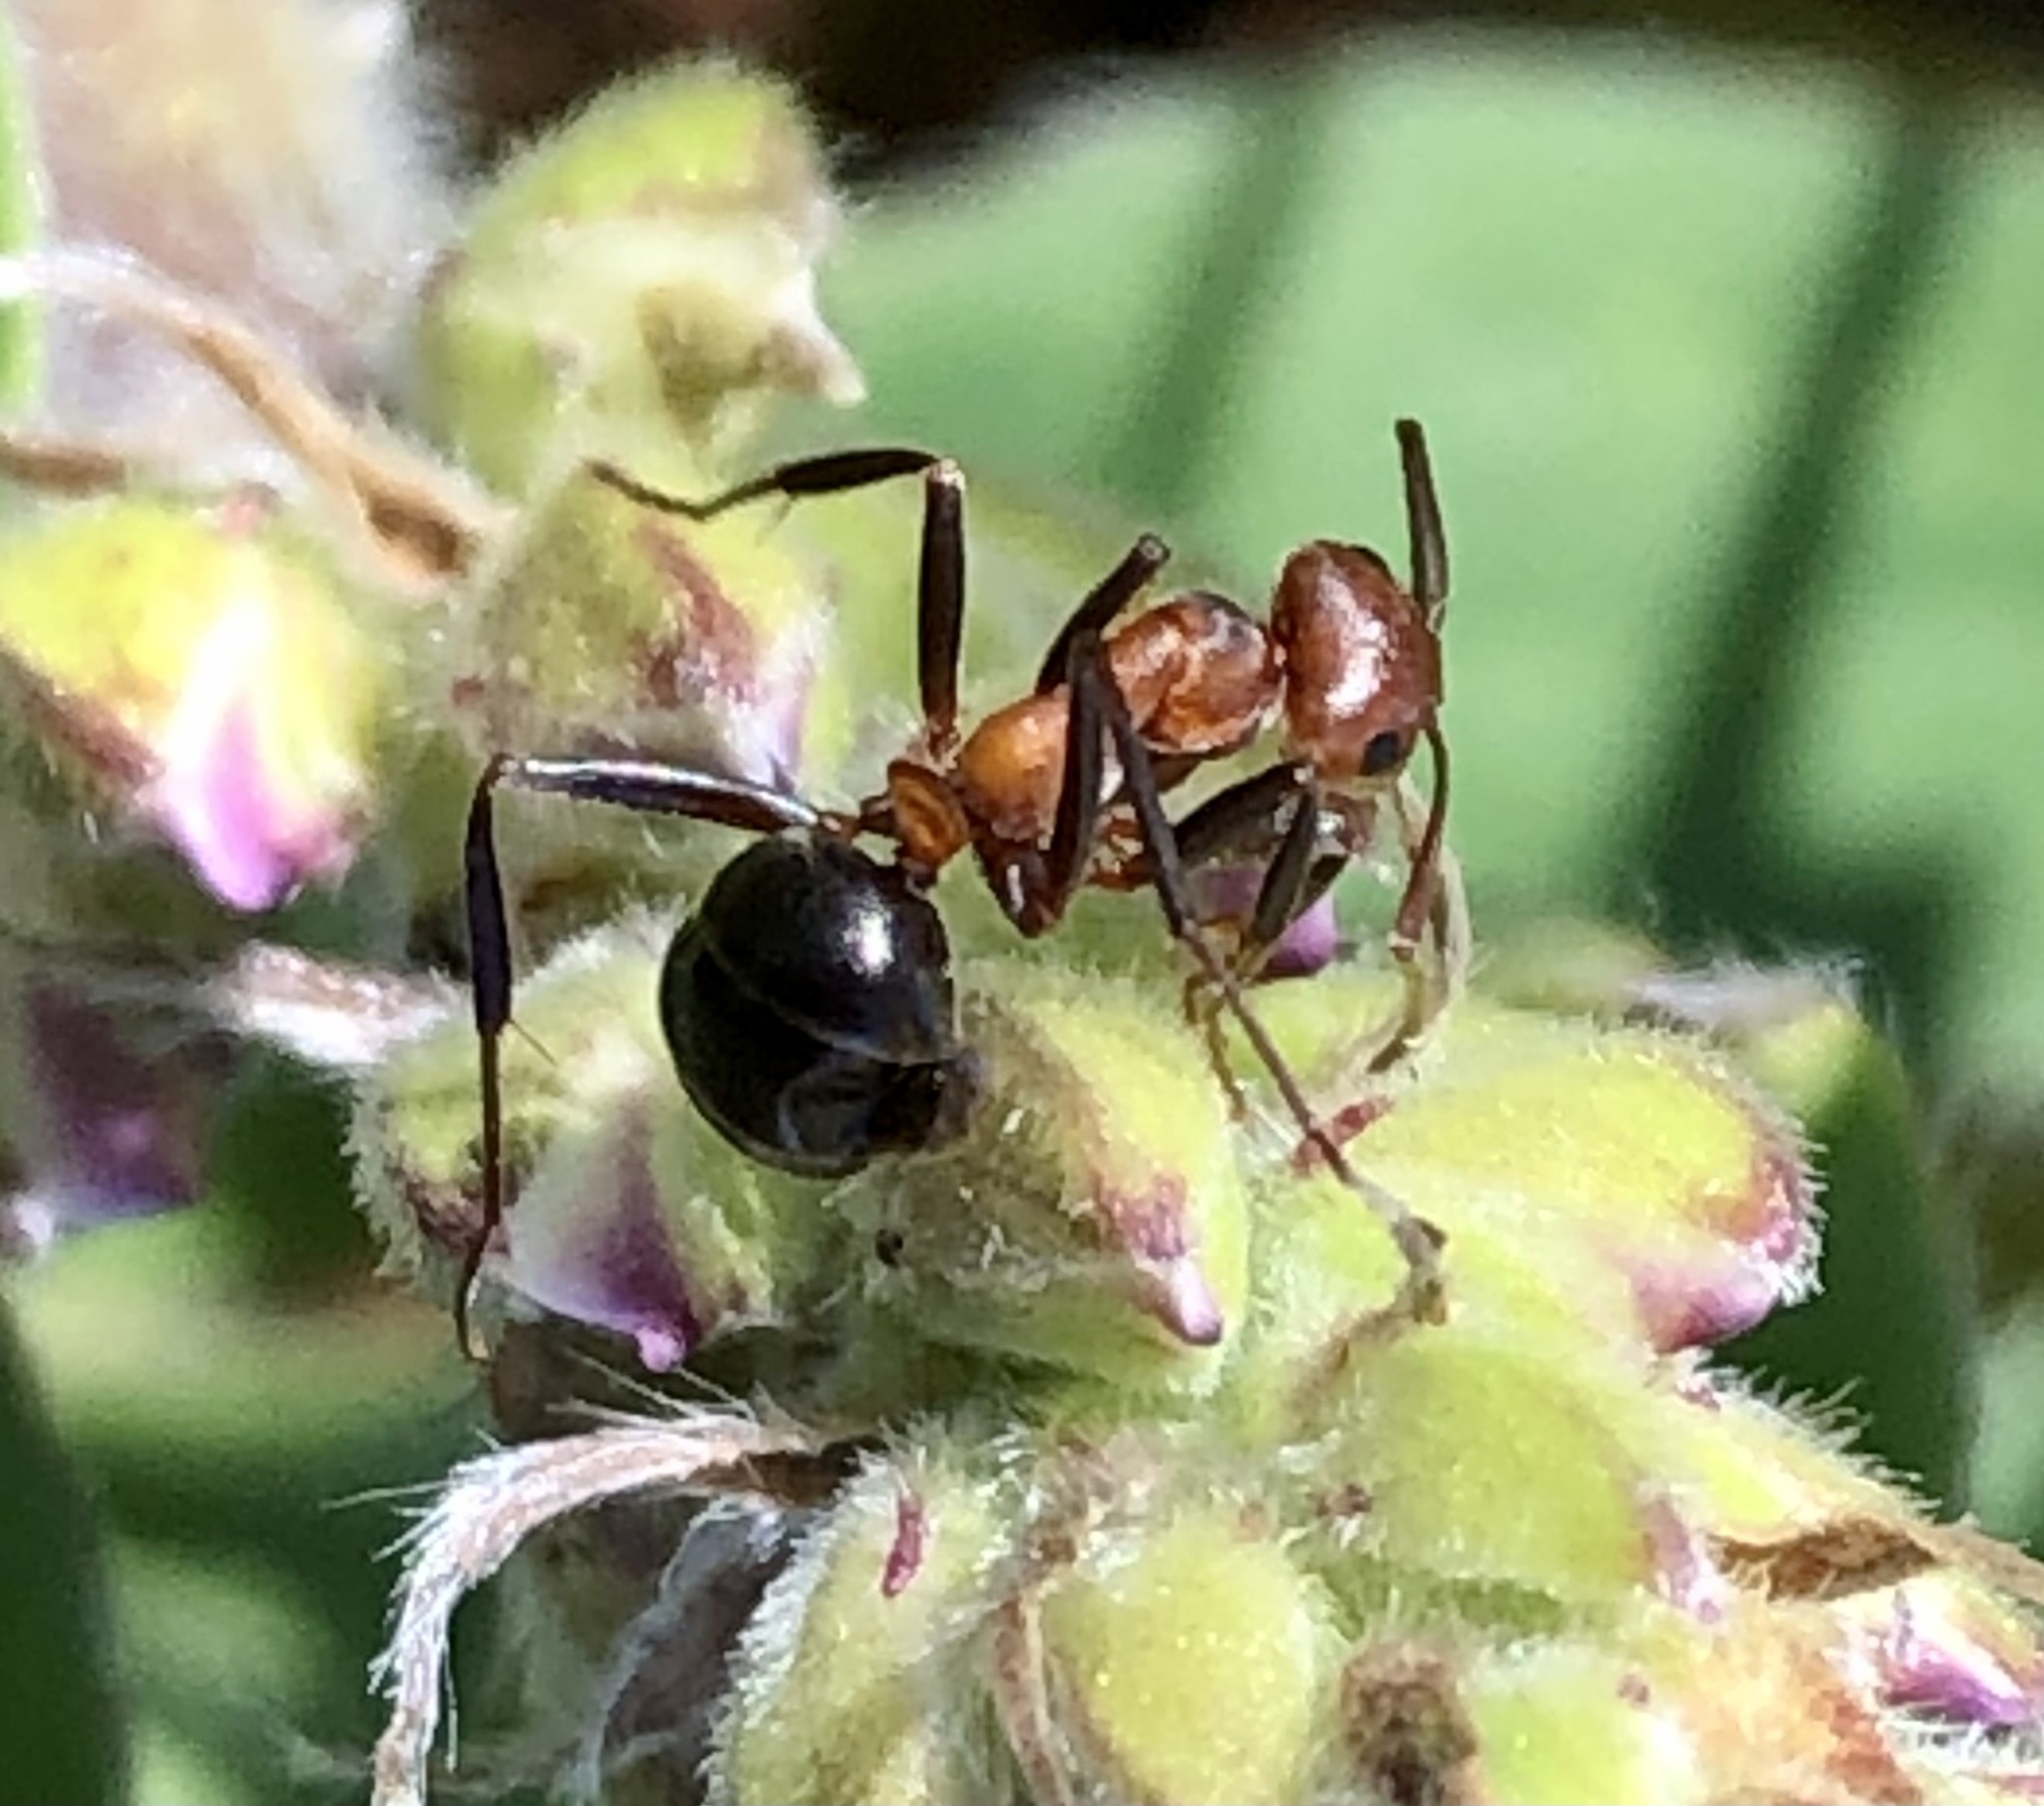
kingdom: Animalia
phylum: Arthropoda
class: Insecta
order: Hymenoptera
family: Formicidae
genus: Formica
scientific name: Formica exsectoides
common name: Allegheny mound ant
